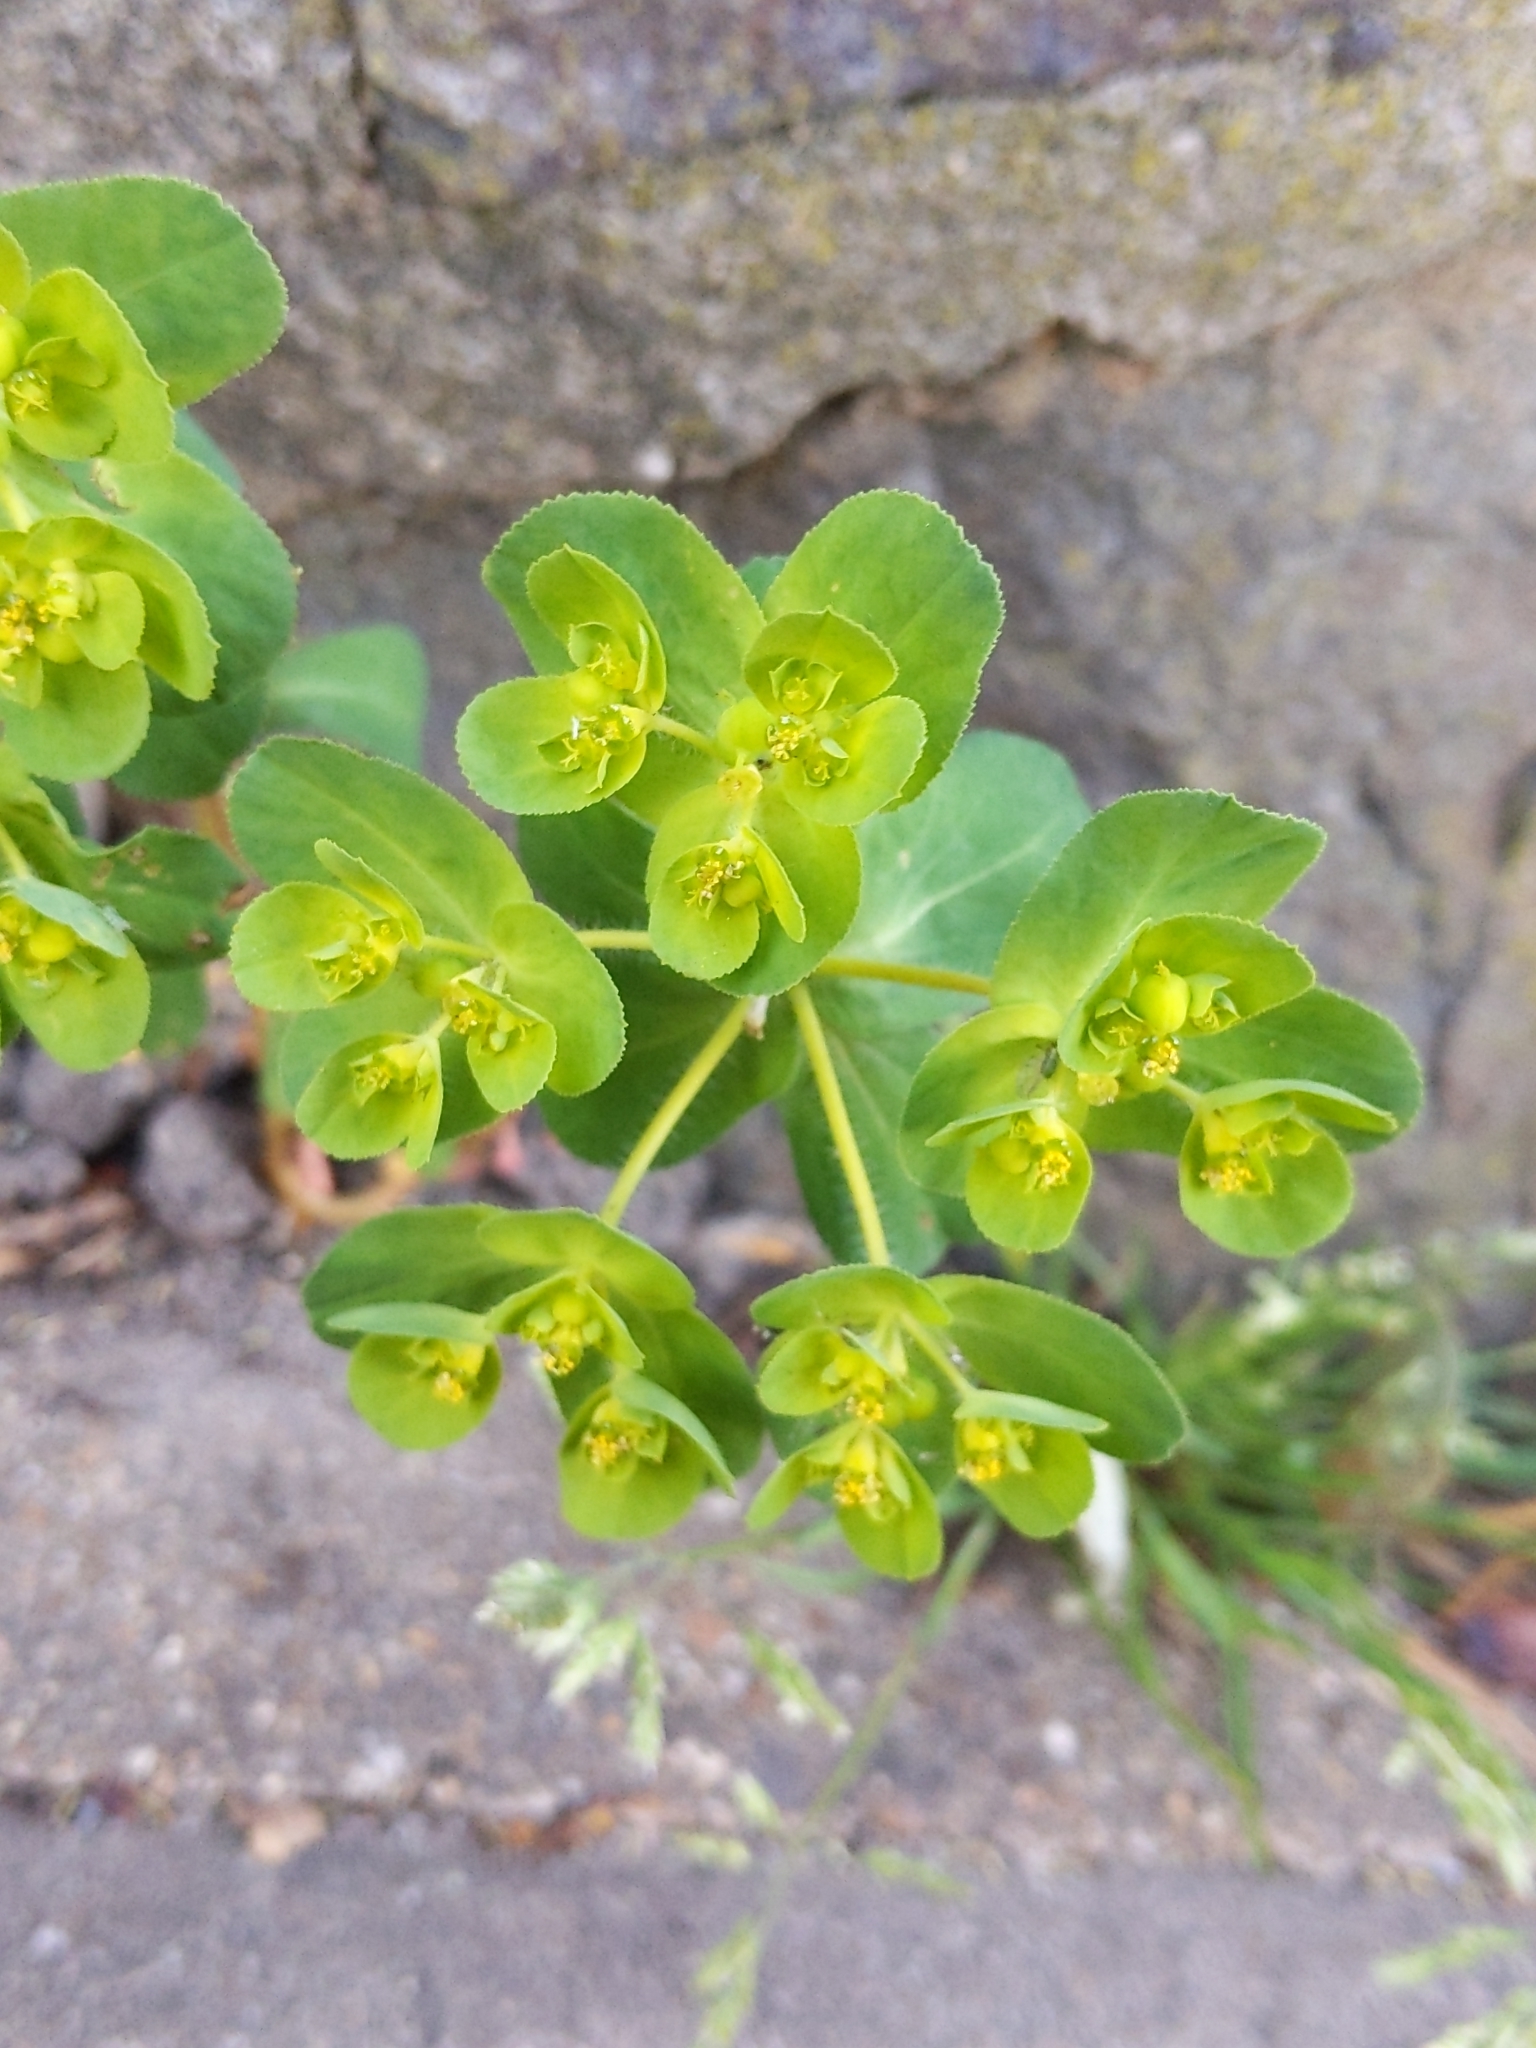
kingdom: Plantae
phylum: Tracheophyta
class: Magnoliopsida
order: Malpighiales
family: Euphorbiaceae
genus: Euphorbia
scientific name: Euphorbia helioscopia
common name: Sun spurge
